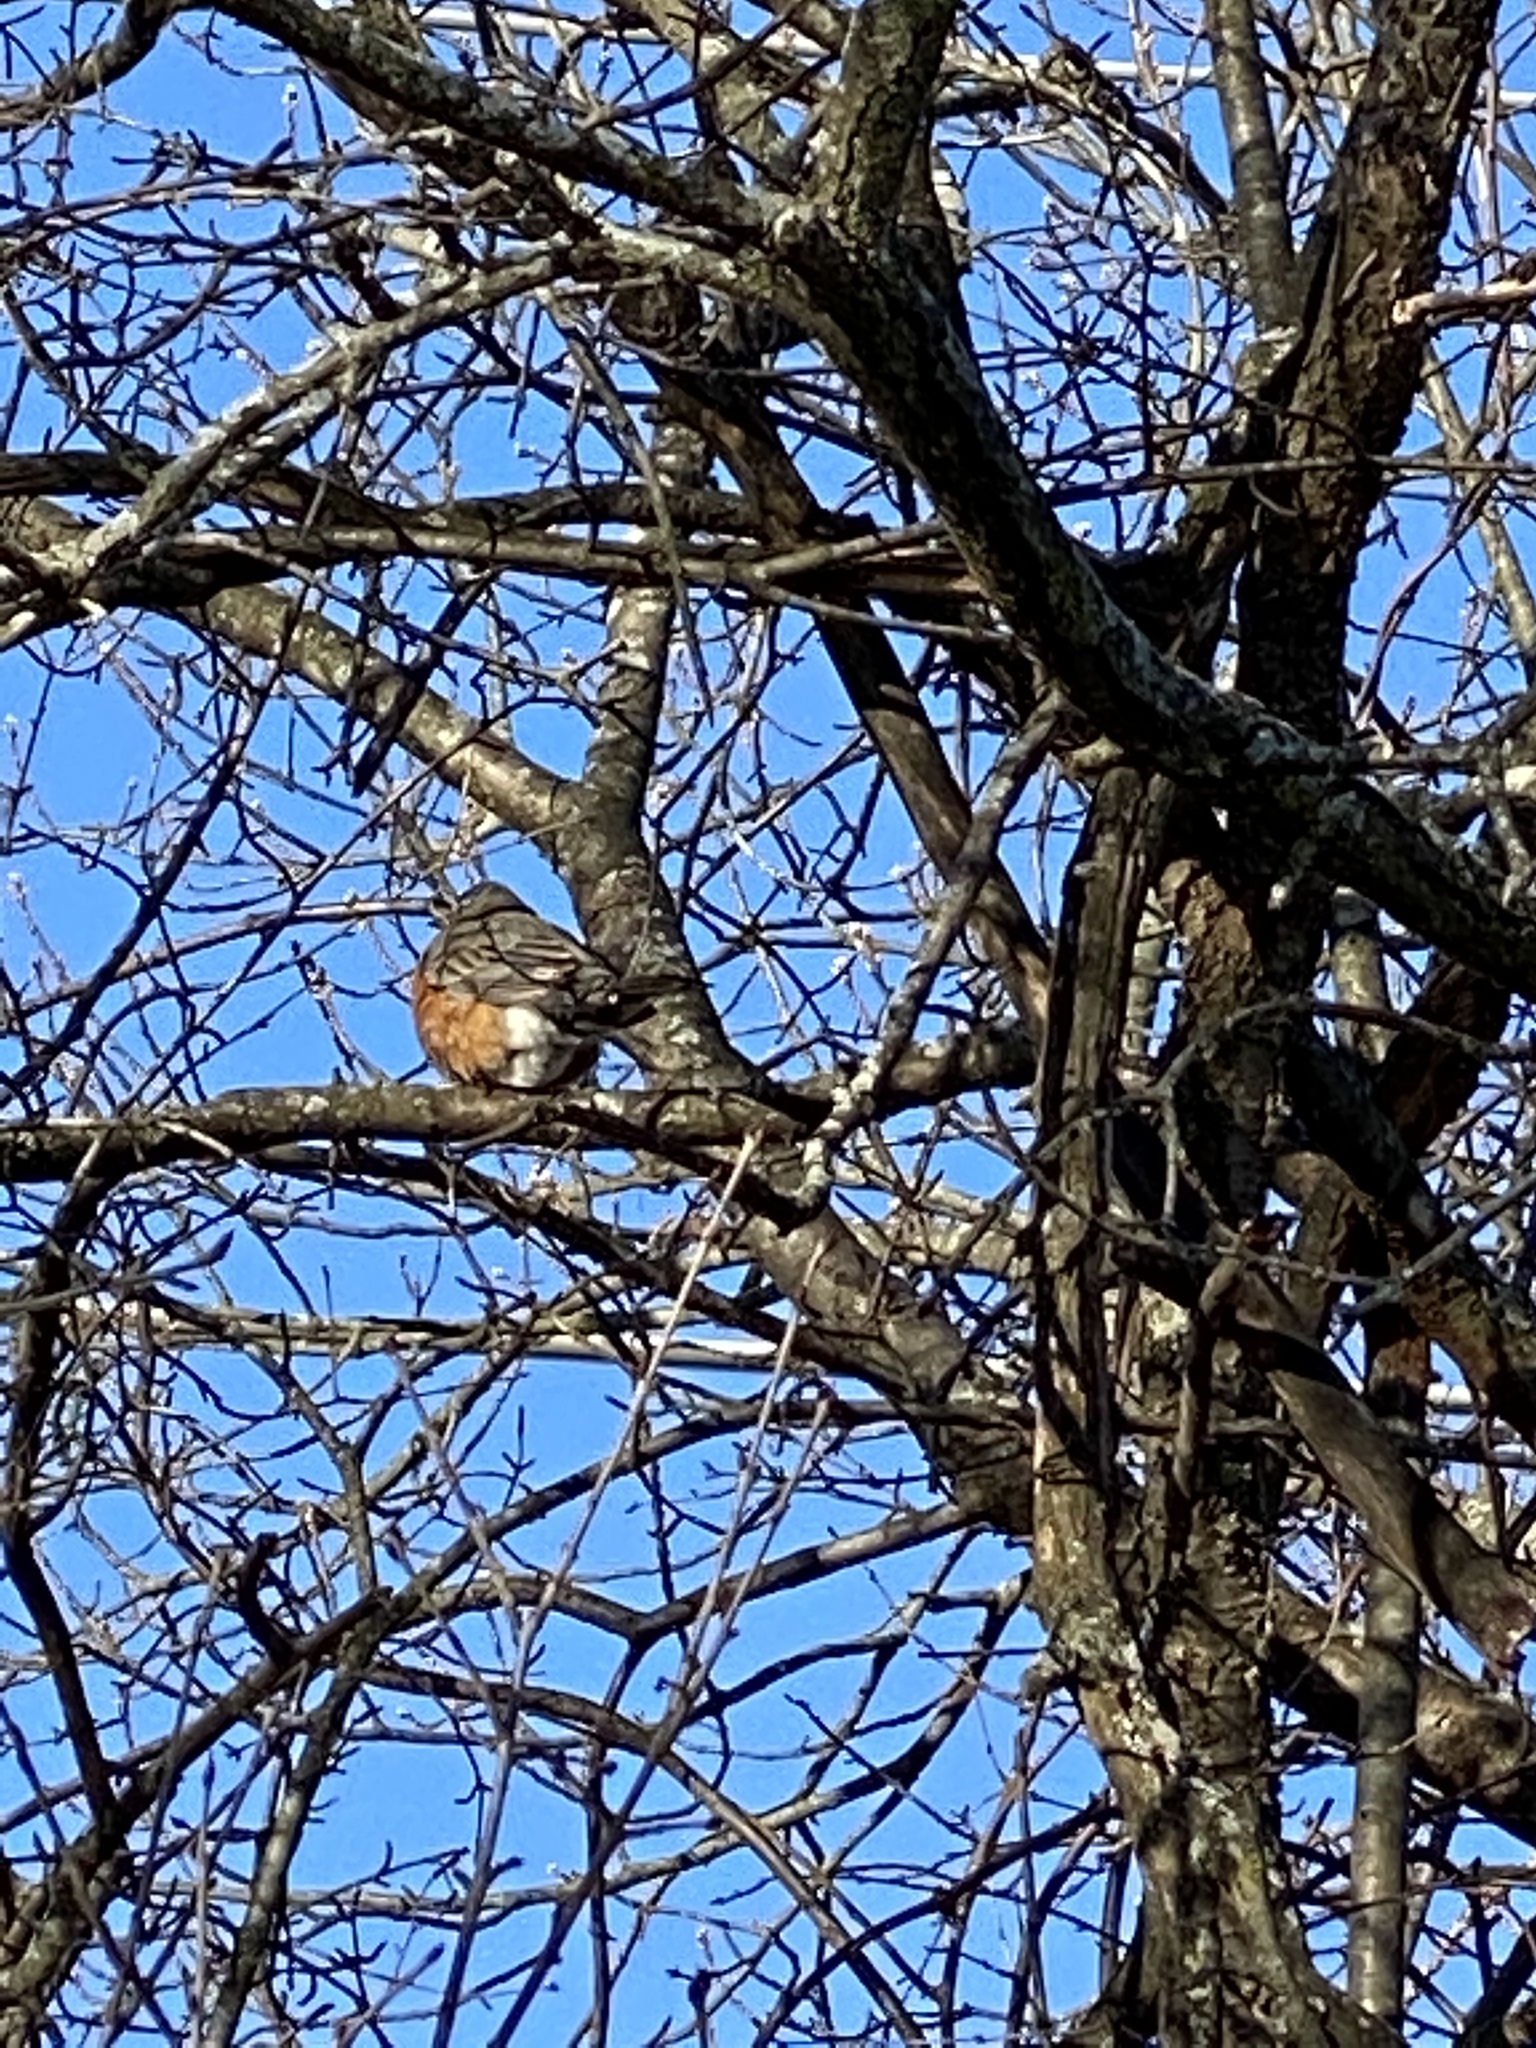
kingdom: Animalia
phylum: Chordata
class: Aves
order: Passeriformes
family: Turdidae
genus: Turdus
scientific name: Turdus migratorius
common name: American robin
